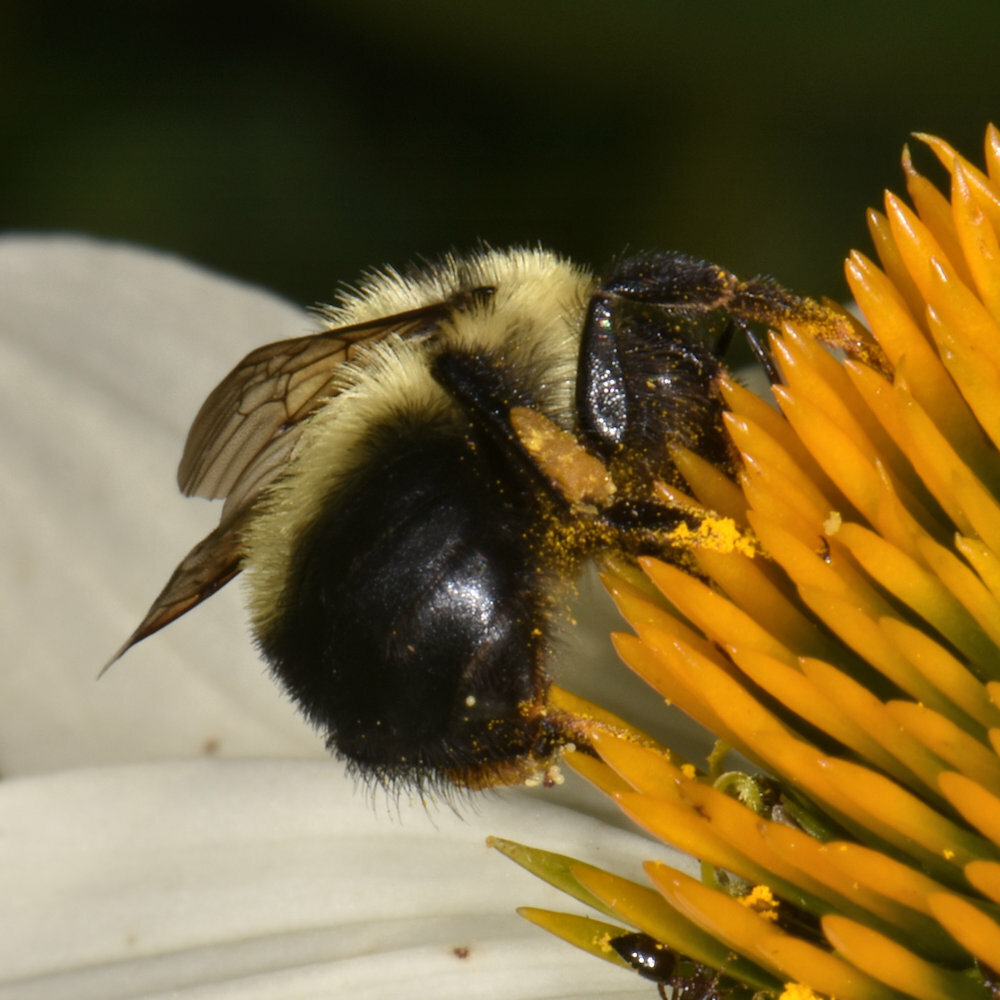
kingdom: Animalia
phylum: Arthropoda
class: Insecta
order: Hymenoptera
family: Apidae
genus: Bombus
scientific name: Bombus rufocinctus
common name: Red-belted bumble bee
